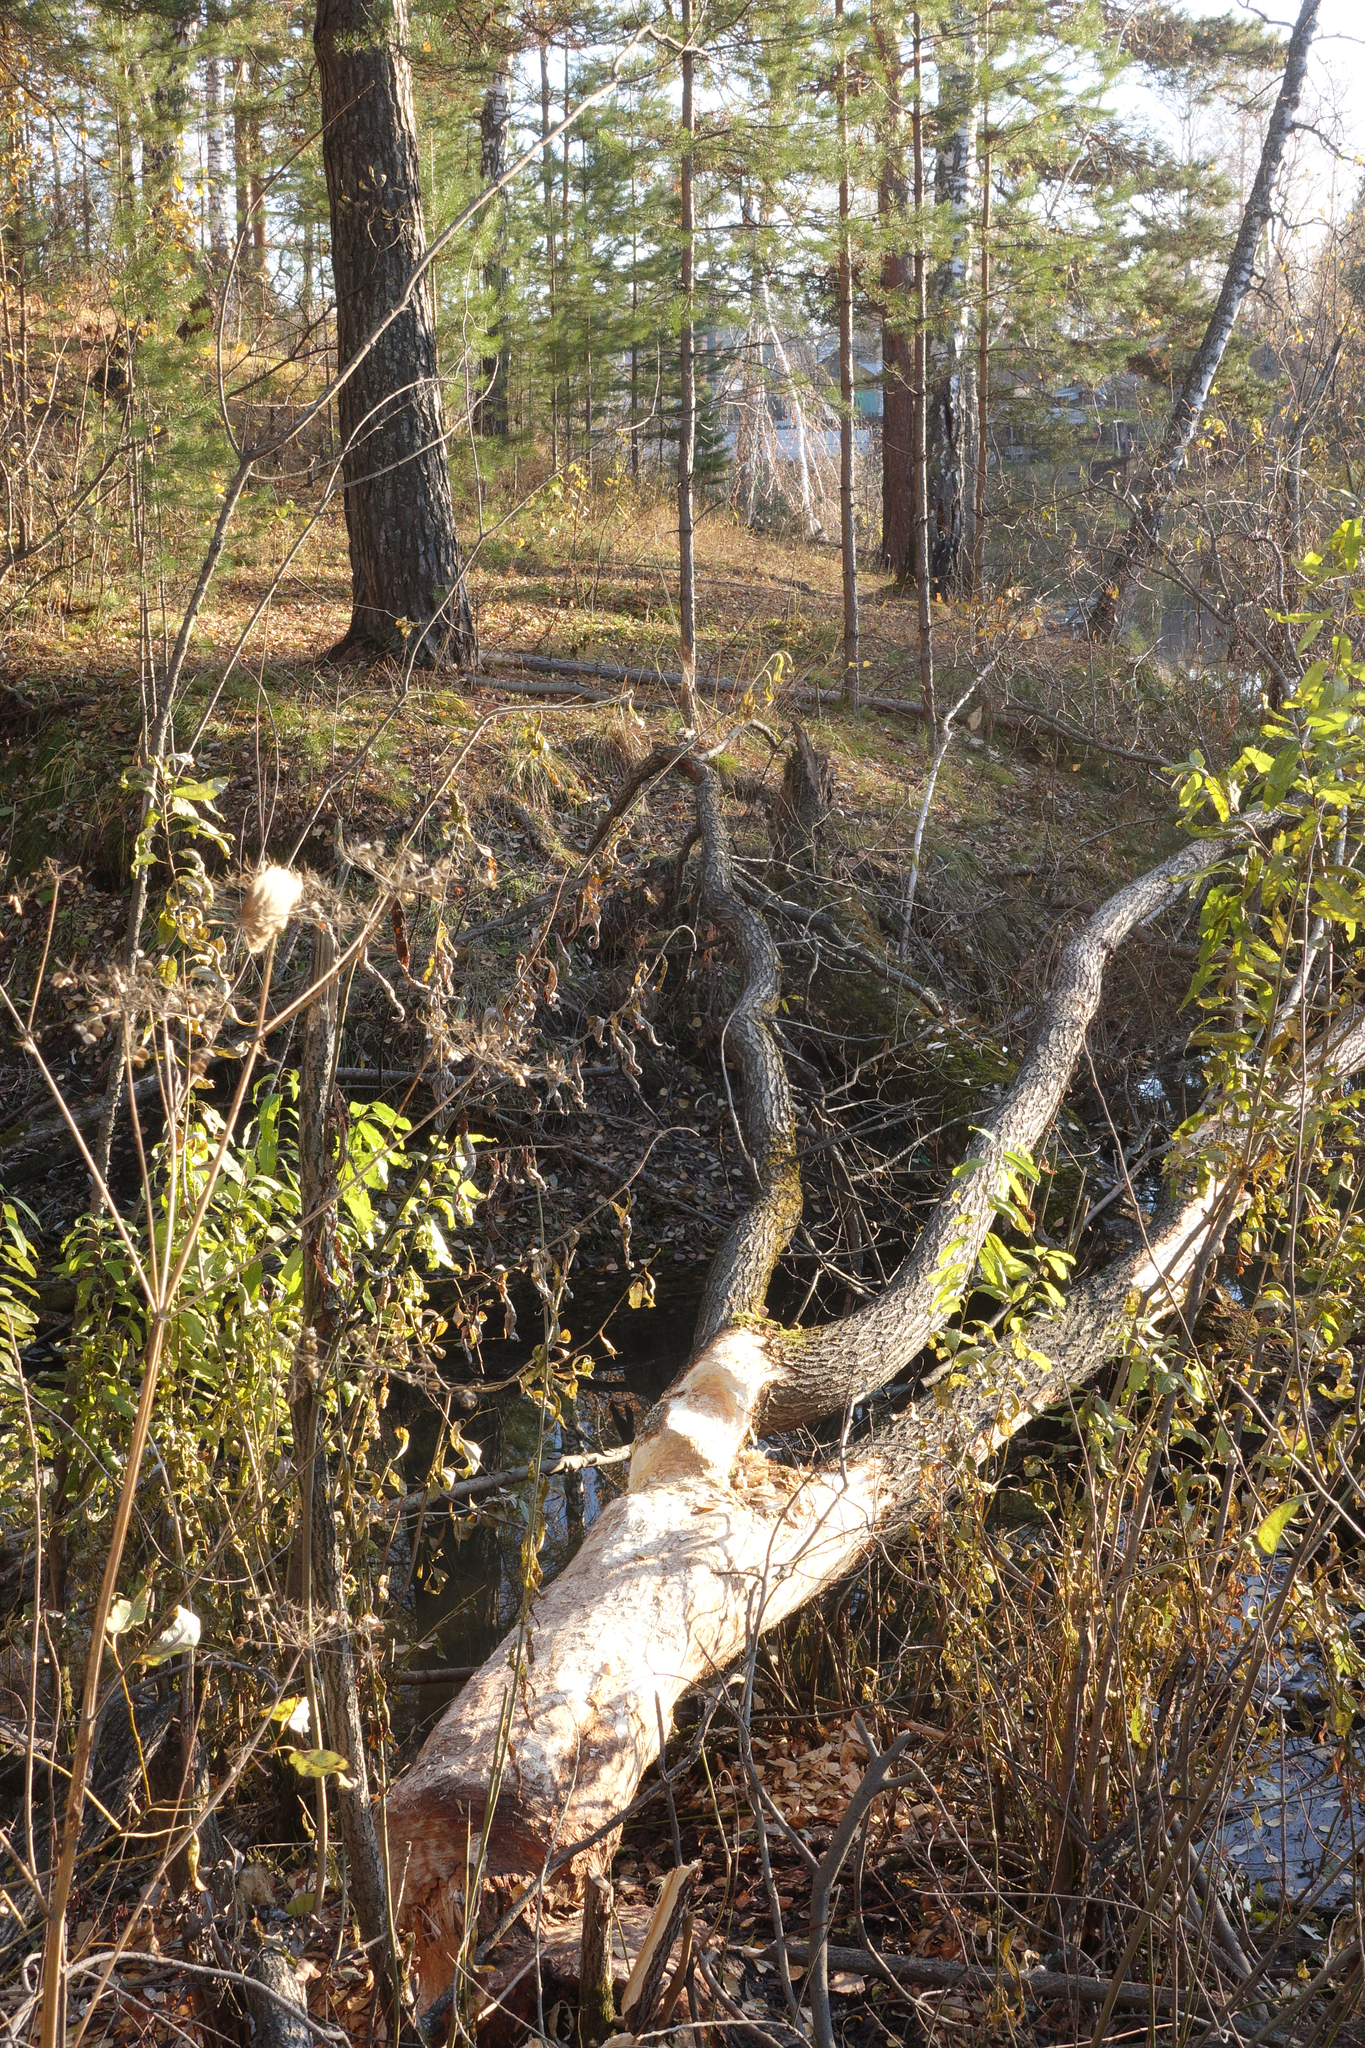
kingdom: Animalia
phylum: Chordata
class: Mammalia
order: Rodentia
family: Castoridae
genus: Castor
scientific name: Castor fiber
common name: Eurasian beaver
